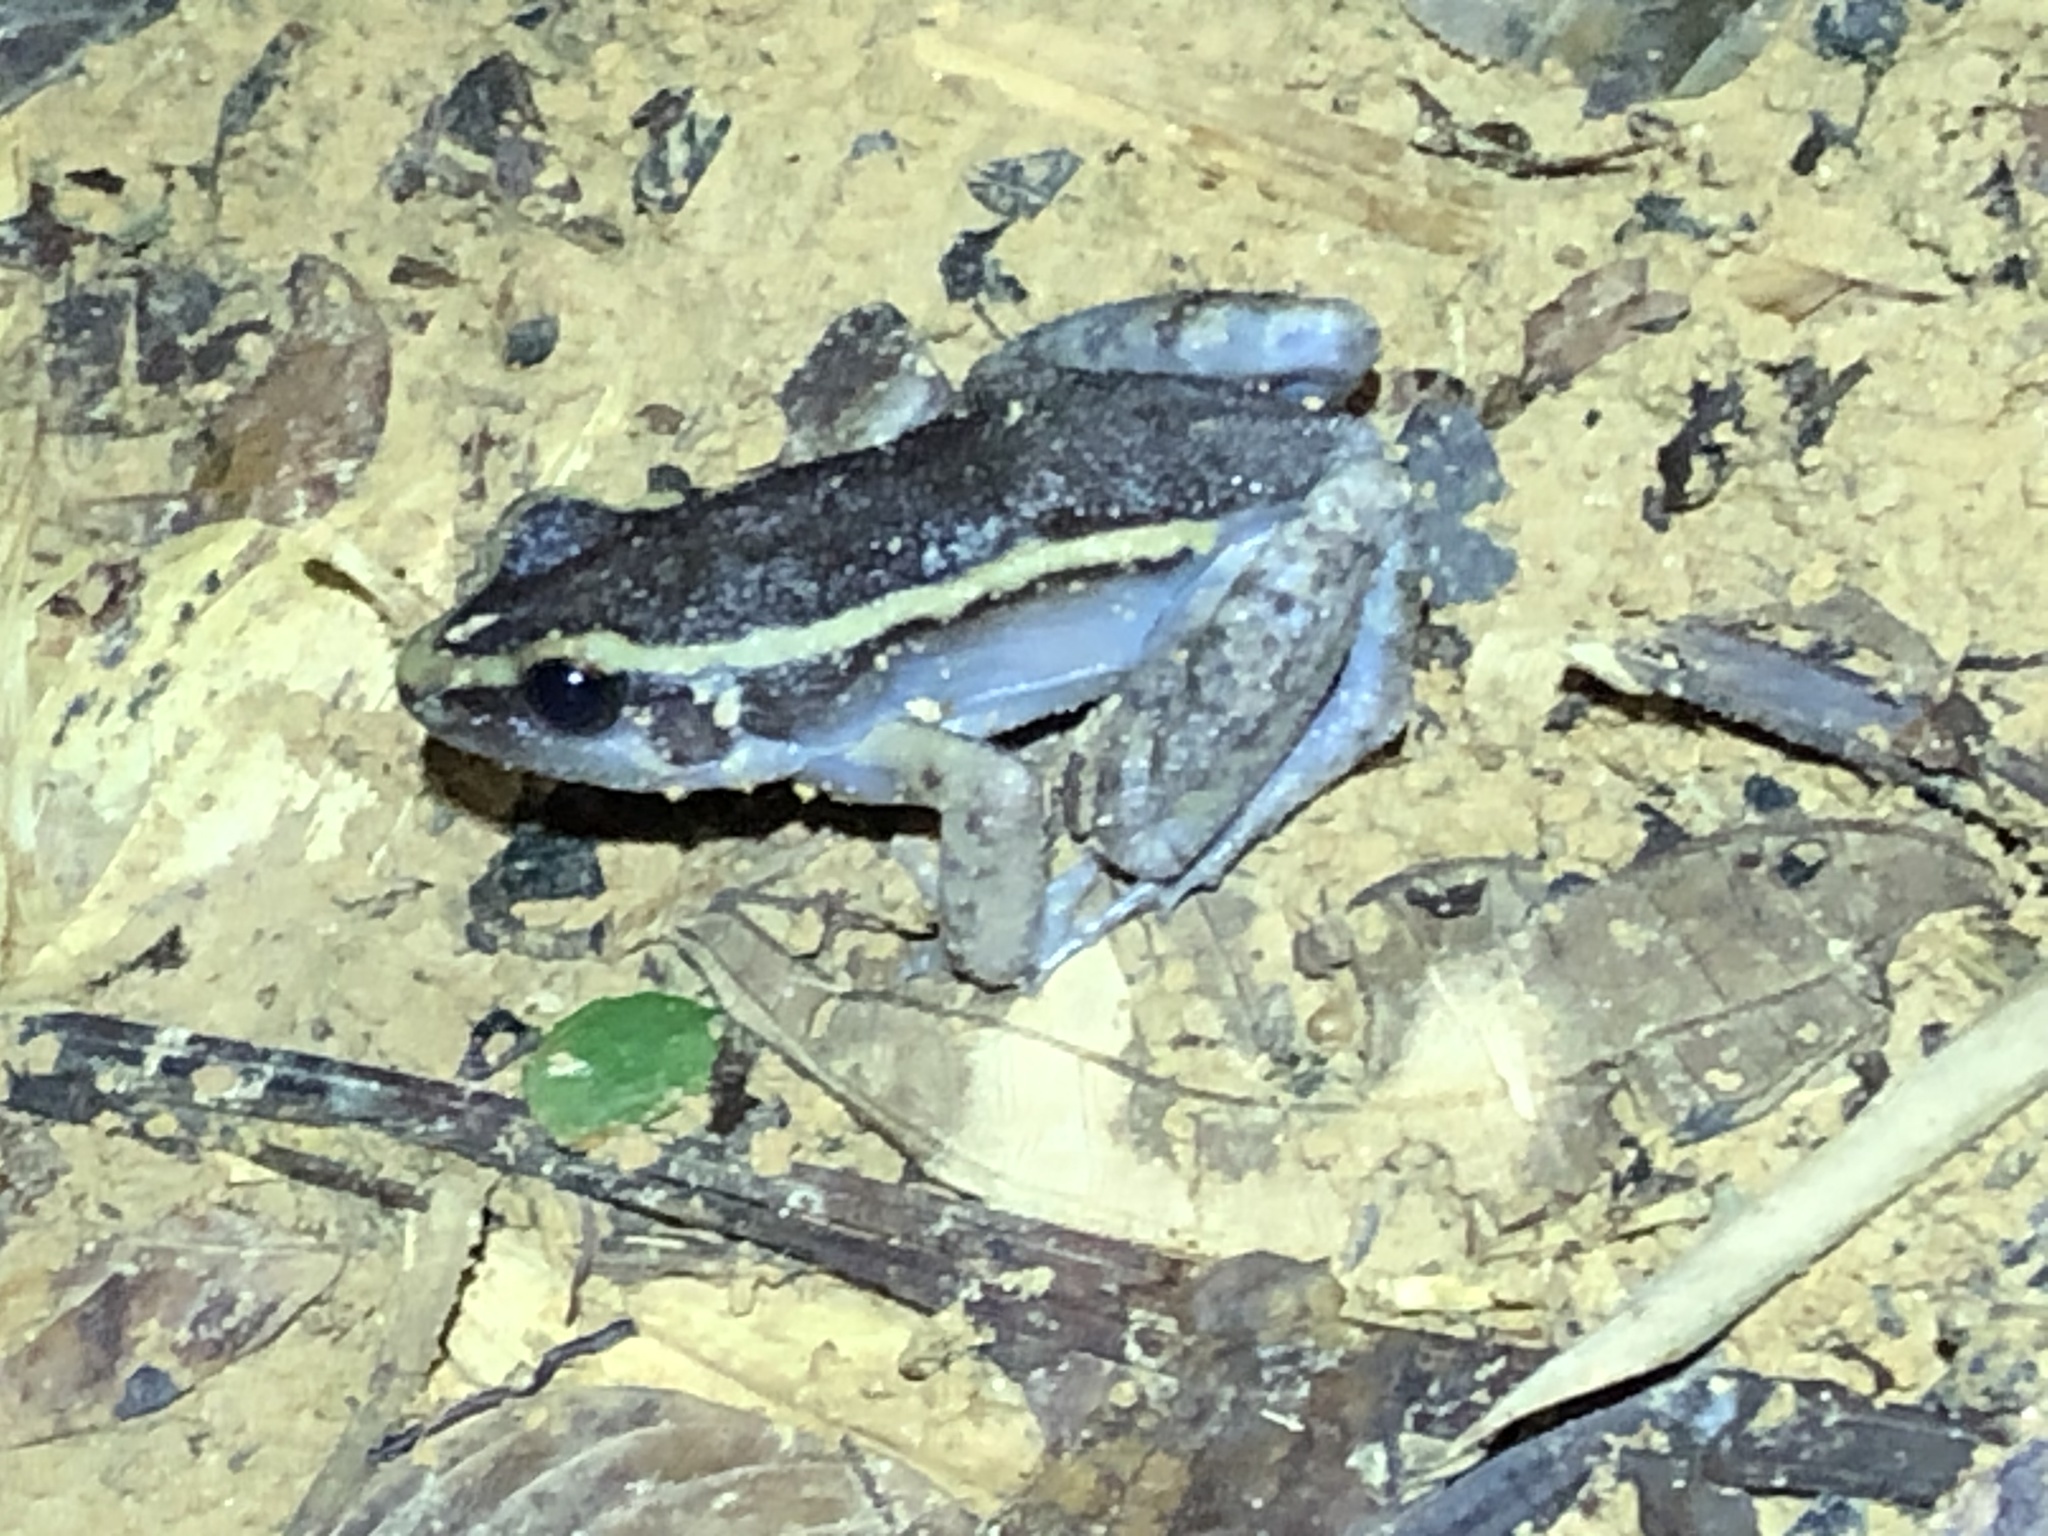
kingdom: Animalia
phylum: Chordata
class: Amphibia
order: Anura
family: Leptodactylidae
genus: Lithodytes
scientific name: Lithodytes lineatus
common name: Gold-striped frog
